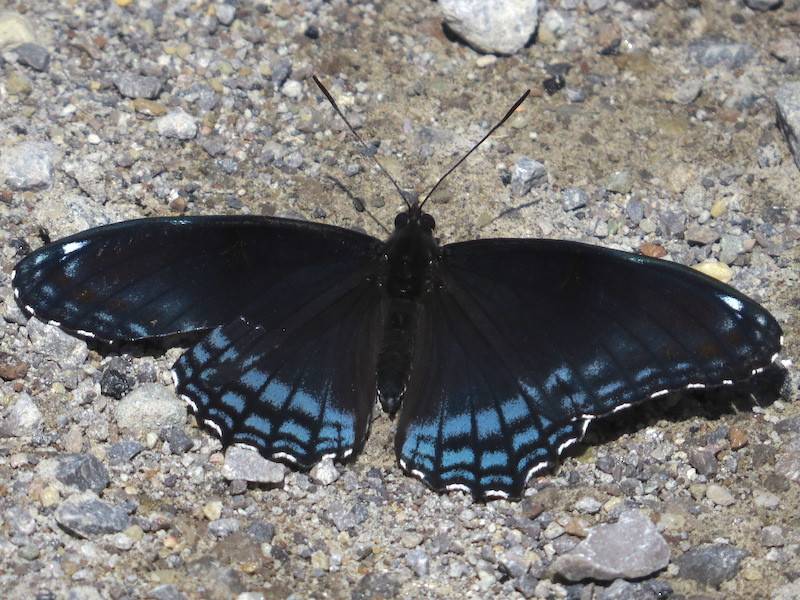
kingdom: Animalia
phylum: Arthropoda
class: Insecta
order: Lepidoptera
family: Nymphalidae
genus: Limenitis
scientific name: Limenitis arthemis
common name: Red-spotted admiral
